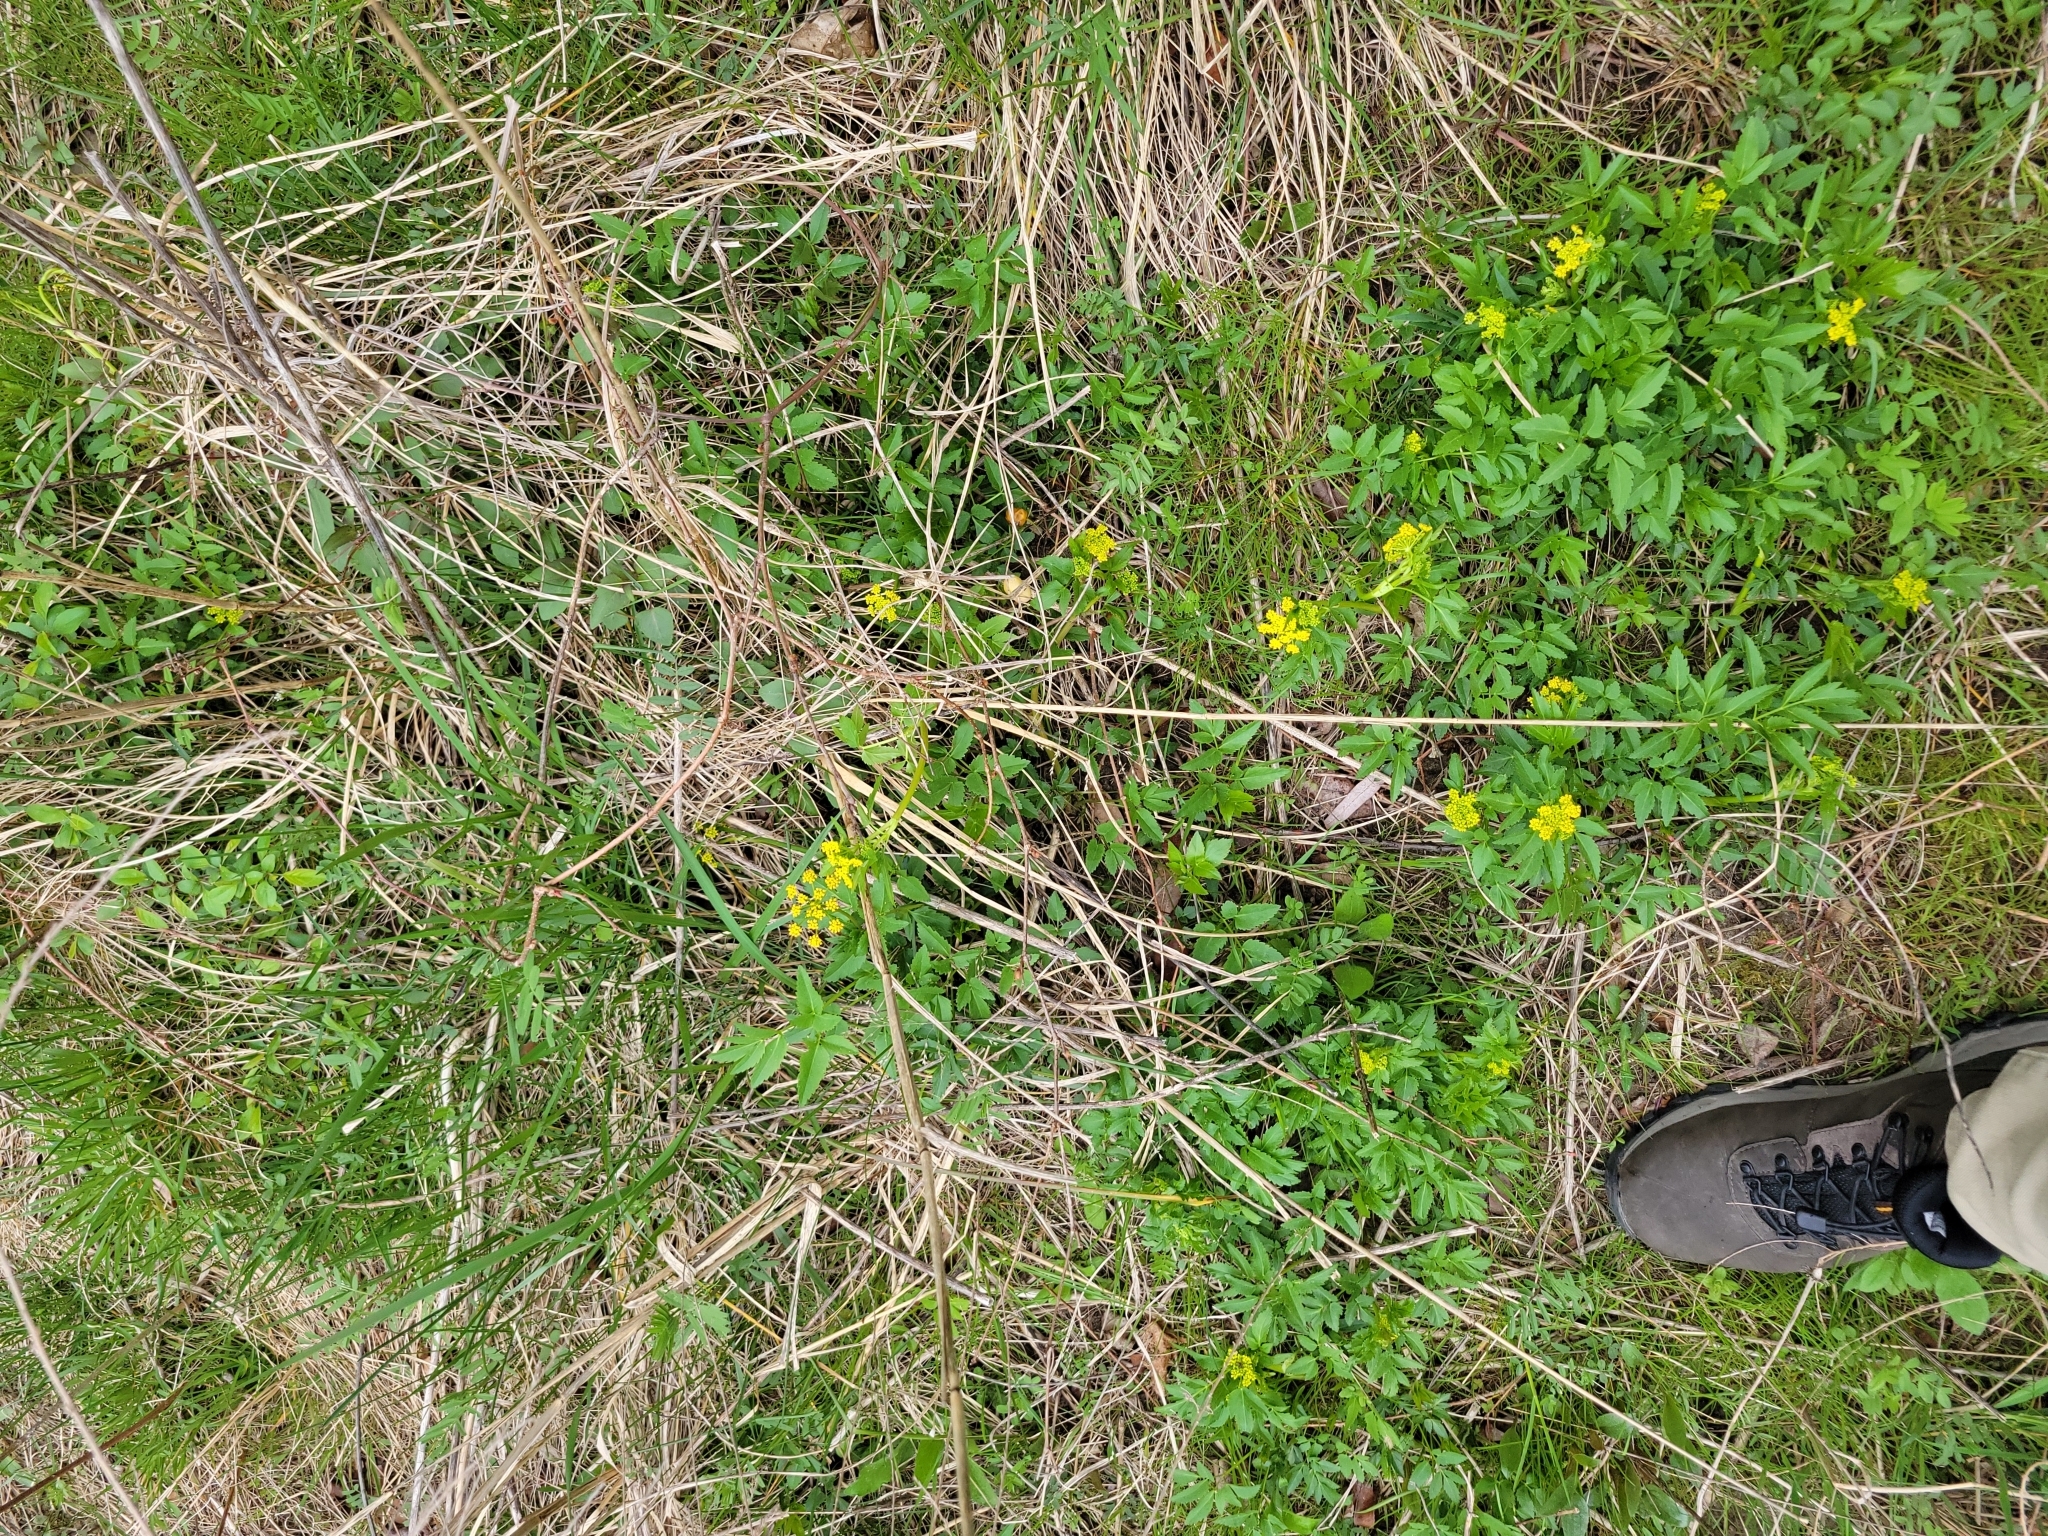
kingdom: Plantae
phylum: Tracheophyta
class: Magnoliopsida
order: Apiales
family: Apiaceae
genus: Zizia
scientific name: Zizia aurea
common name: Golden alexanders
